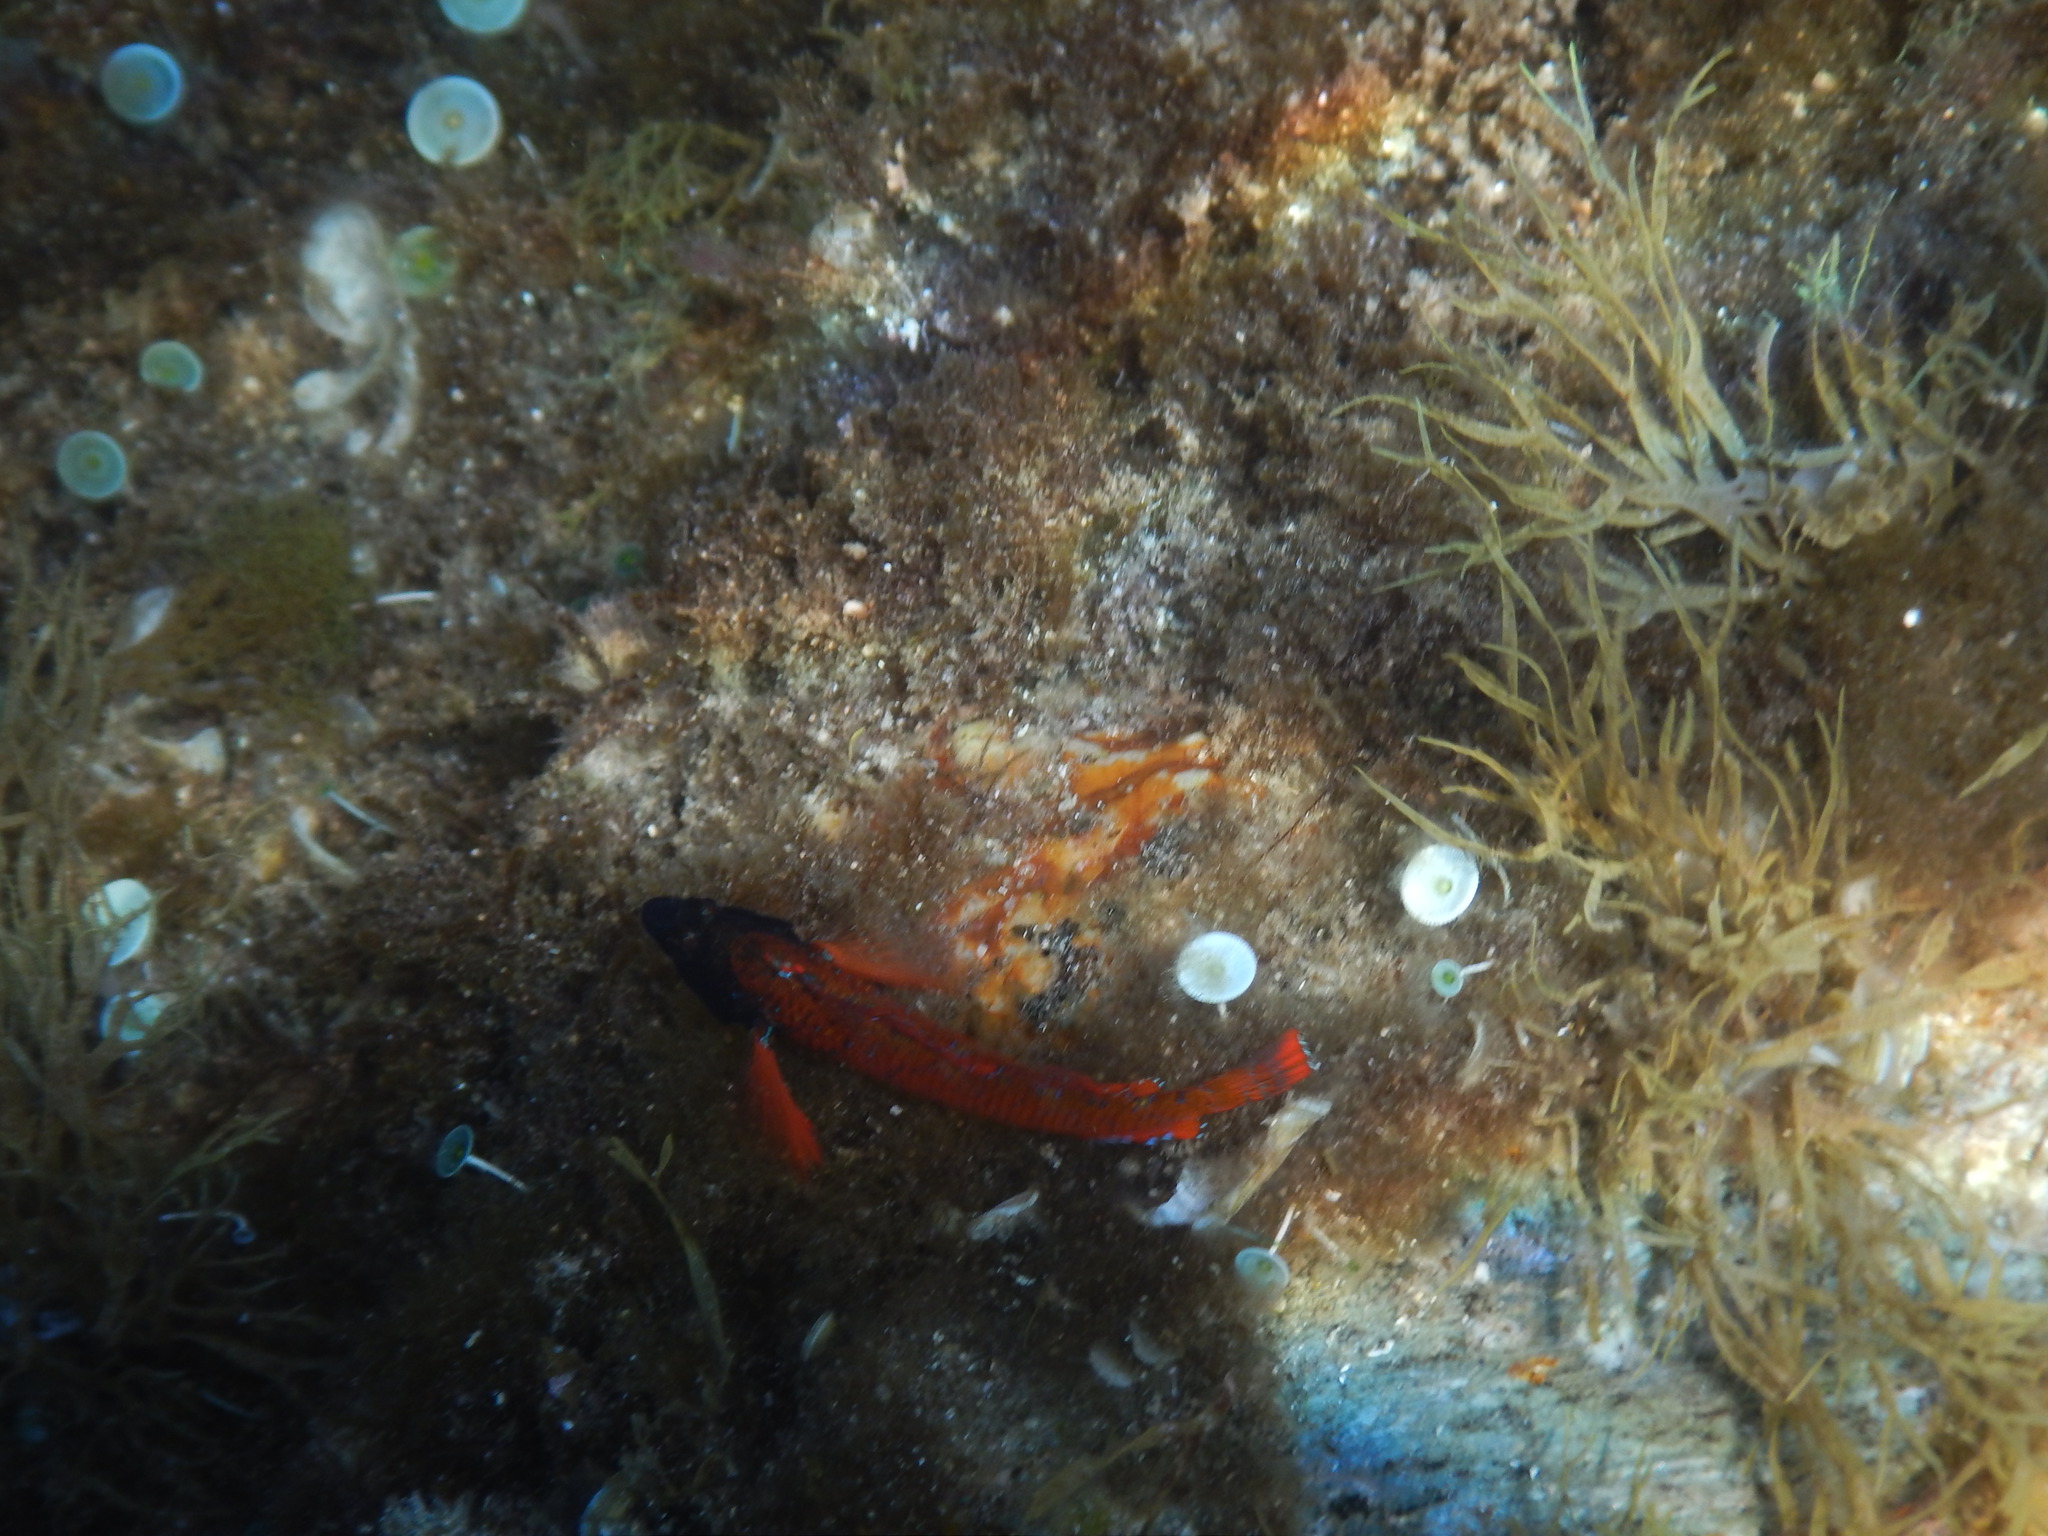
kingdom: Animalia
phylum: Chordata
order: Perciformes
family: Tripterygiidae
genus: Tripterygion
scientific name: Tripterygion tripteronotum
